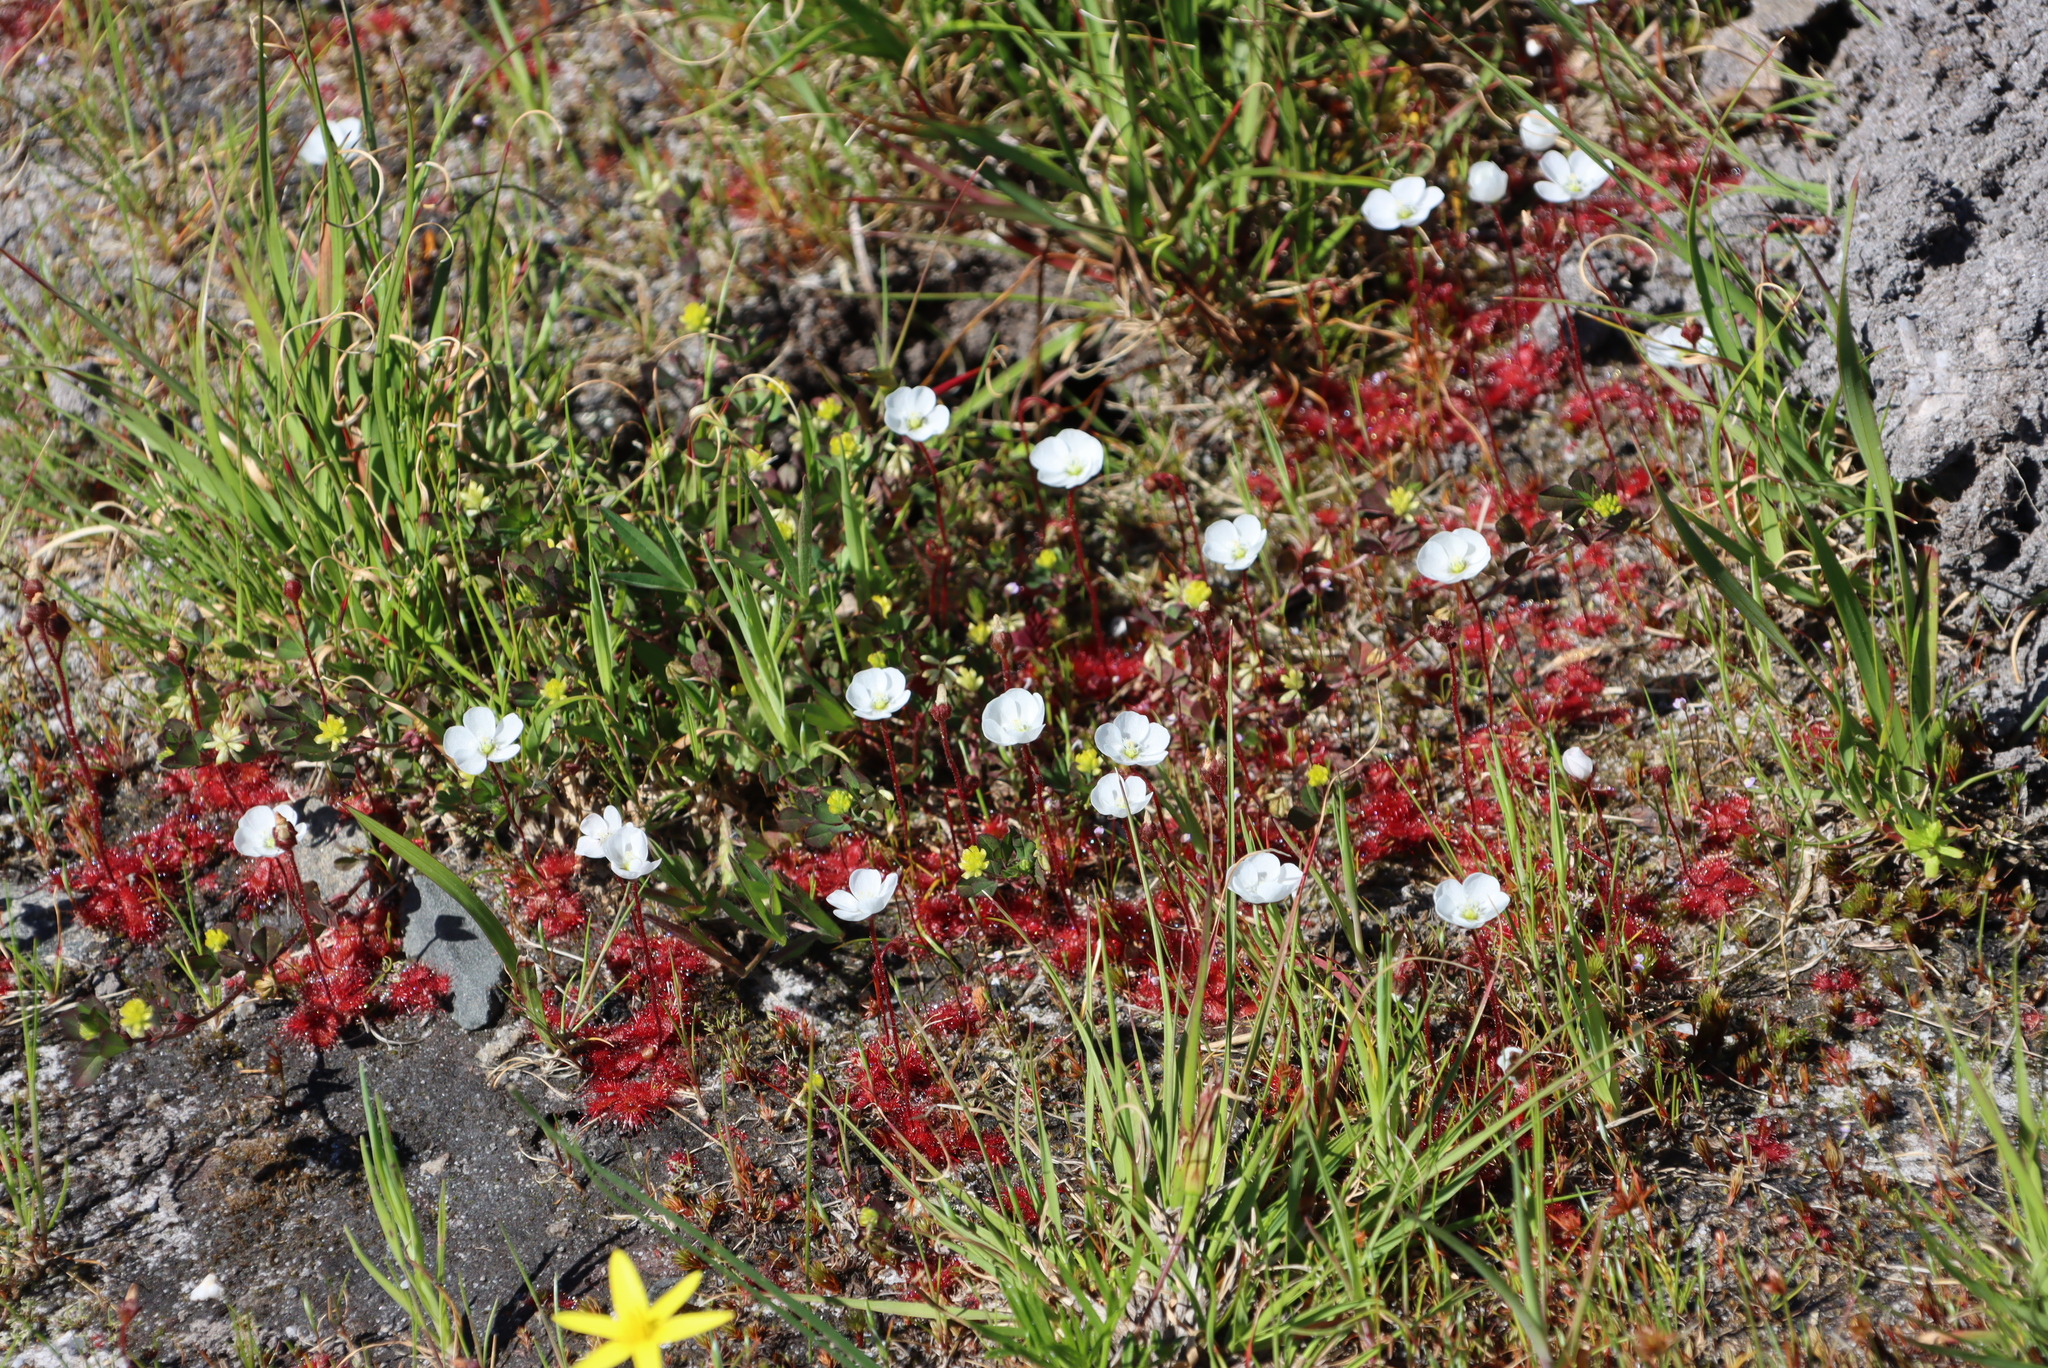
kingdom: Plantae
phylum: Tracheophyta
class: Magnoliopsida
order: Caryophyllales
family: Droseraceae
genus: Drosera
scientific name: Drosera trinervia
